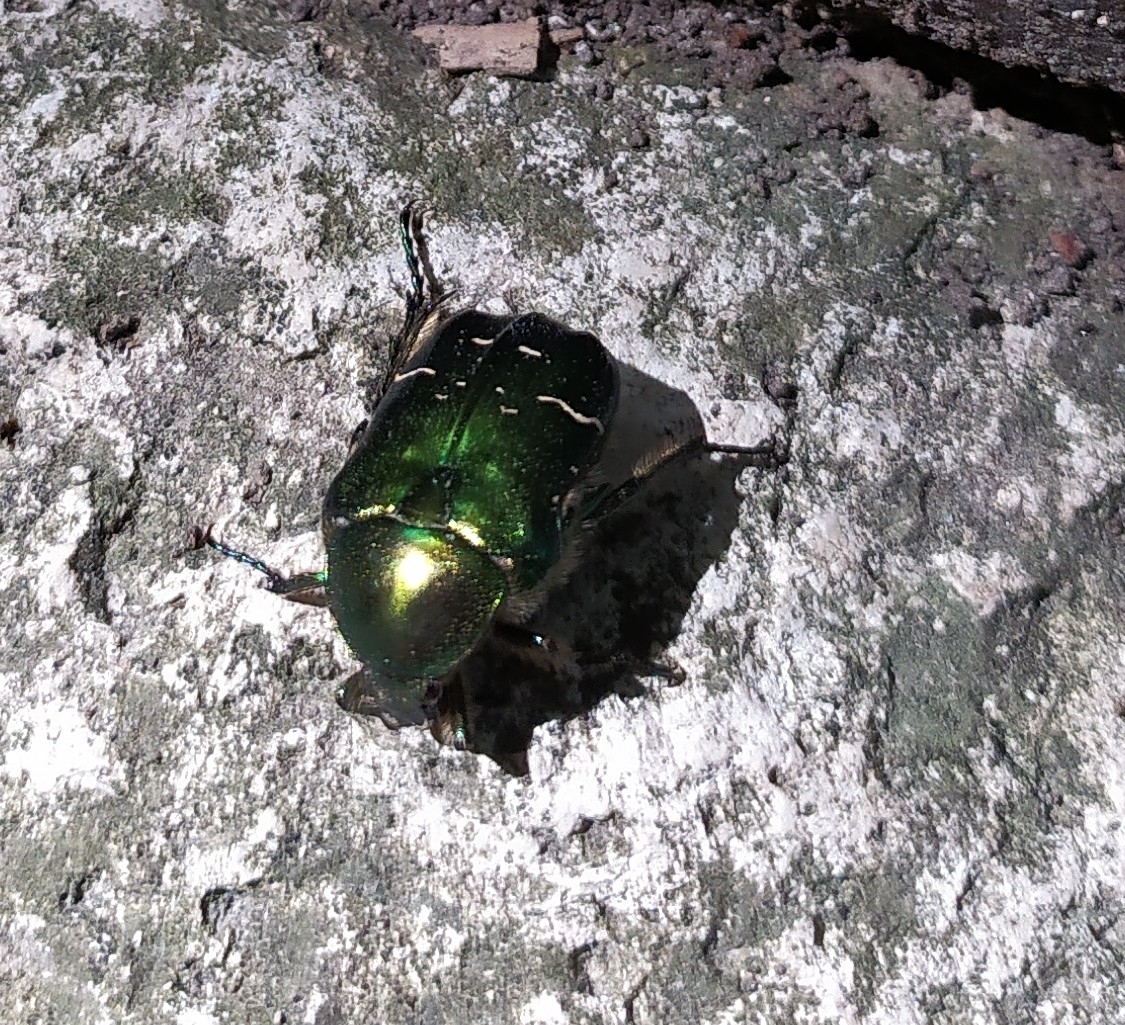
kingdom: Animalia
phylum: Arthropoda
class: Insecta
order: Coleoptera
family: Scarabaeidae
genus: Cetonia
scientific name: Cetonia aurata
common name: Rose chafer
